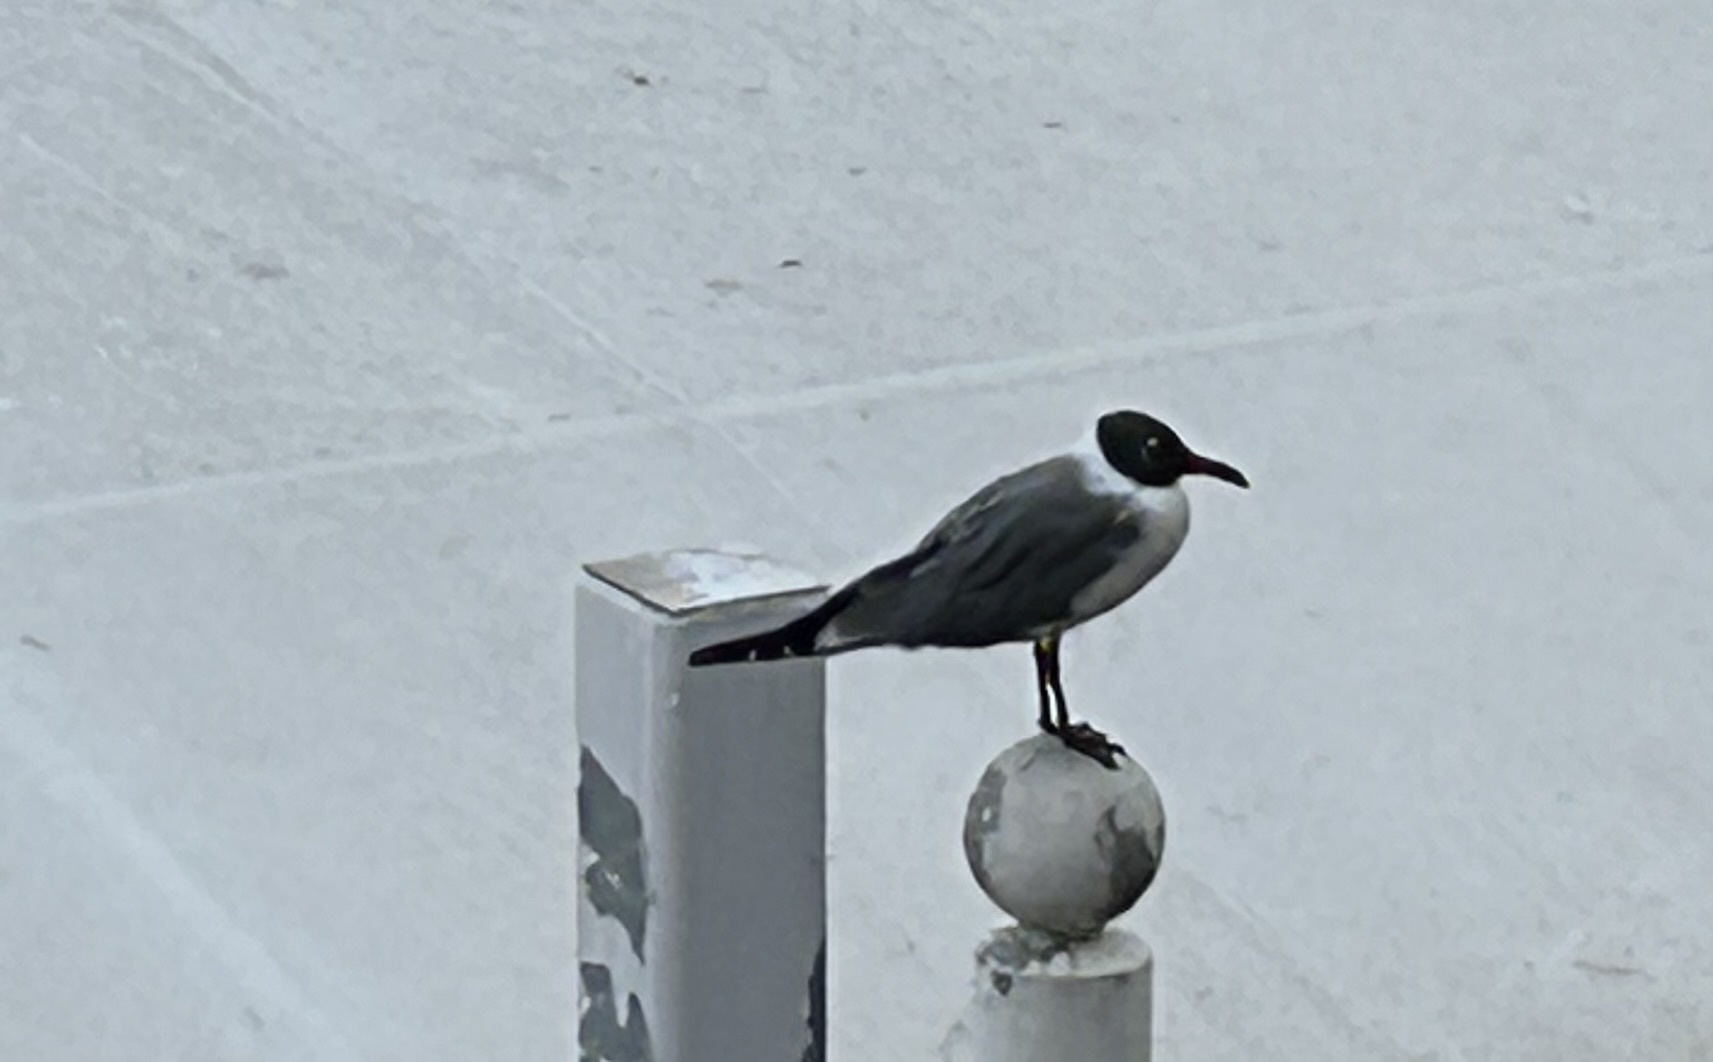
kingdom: Animalia
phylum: Chordata
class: Aves
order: Charadriiformes
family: Laridae
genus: Leucophaeus
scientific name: Leucophaeus atricilla
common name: Laughing gull
